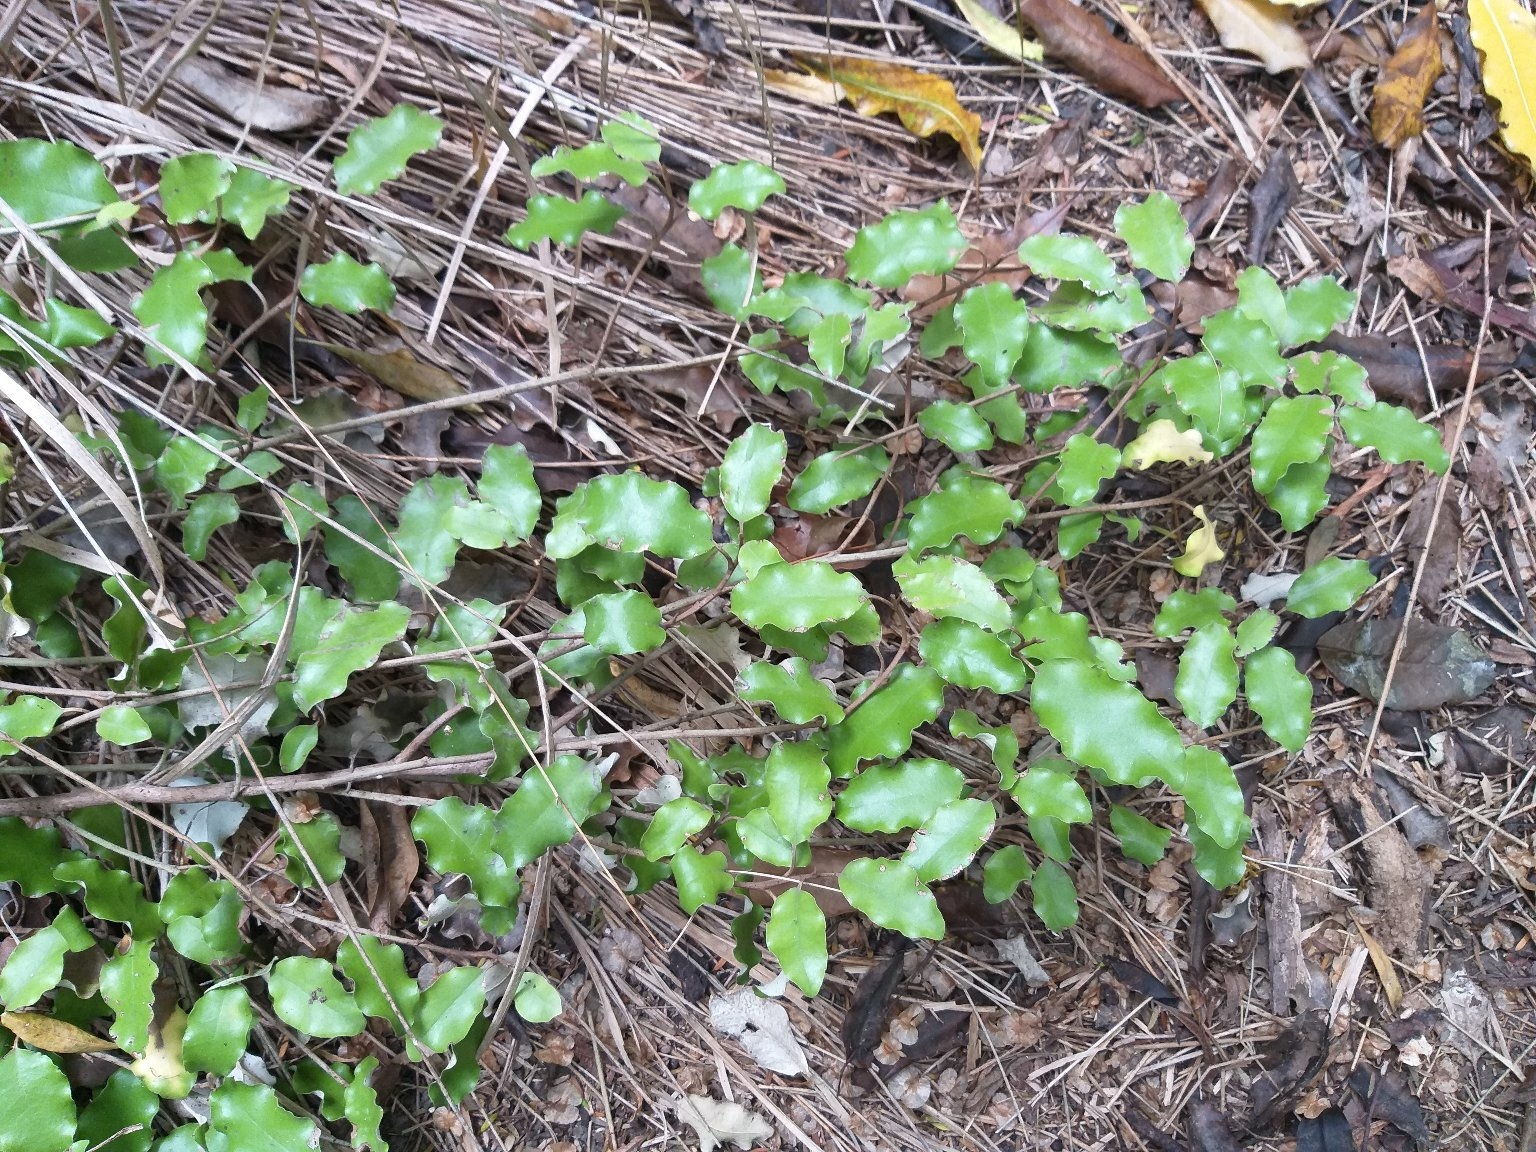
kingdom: Plantae
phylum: Tracheophyta
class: Magnoliopsida
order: Asterales
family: Asteraceae
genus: Olearia
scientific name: Olearia paniculata
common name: Akiraho
